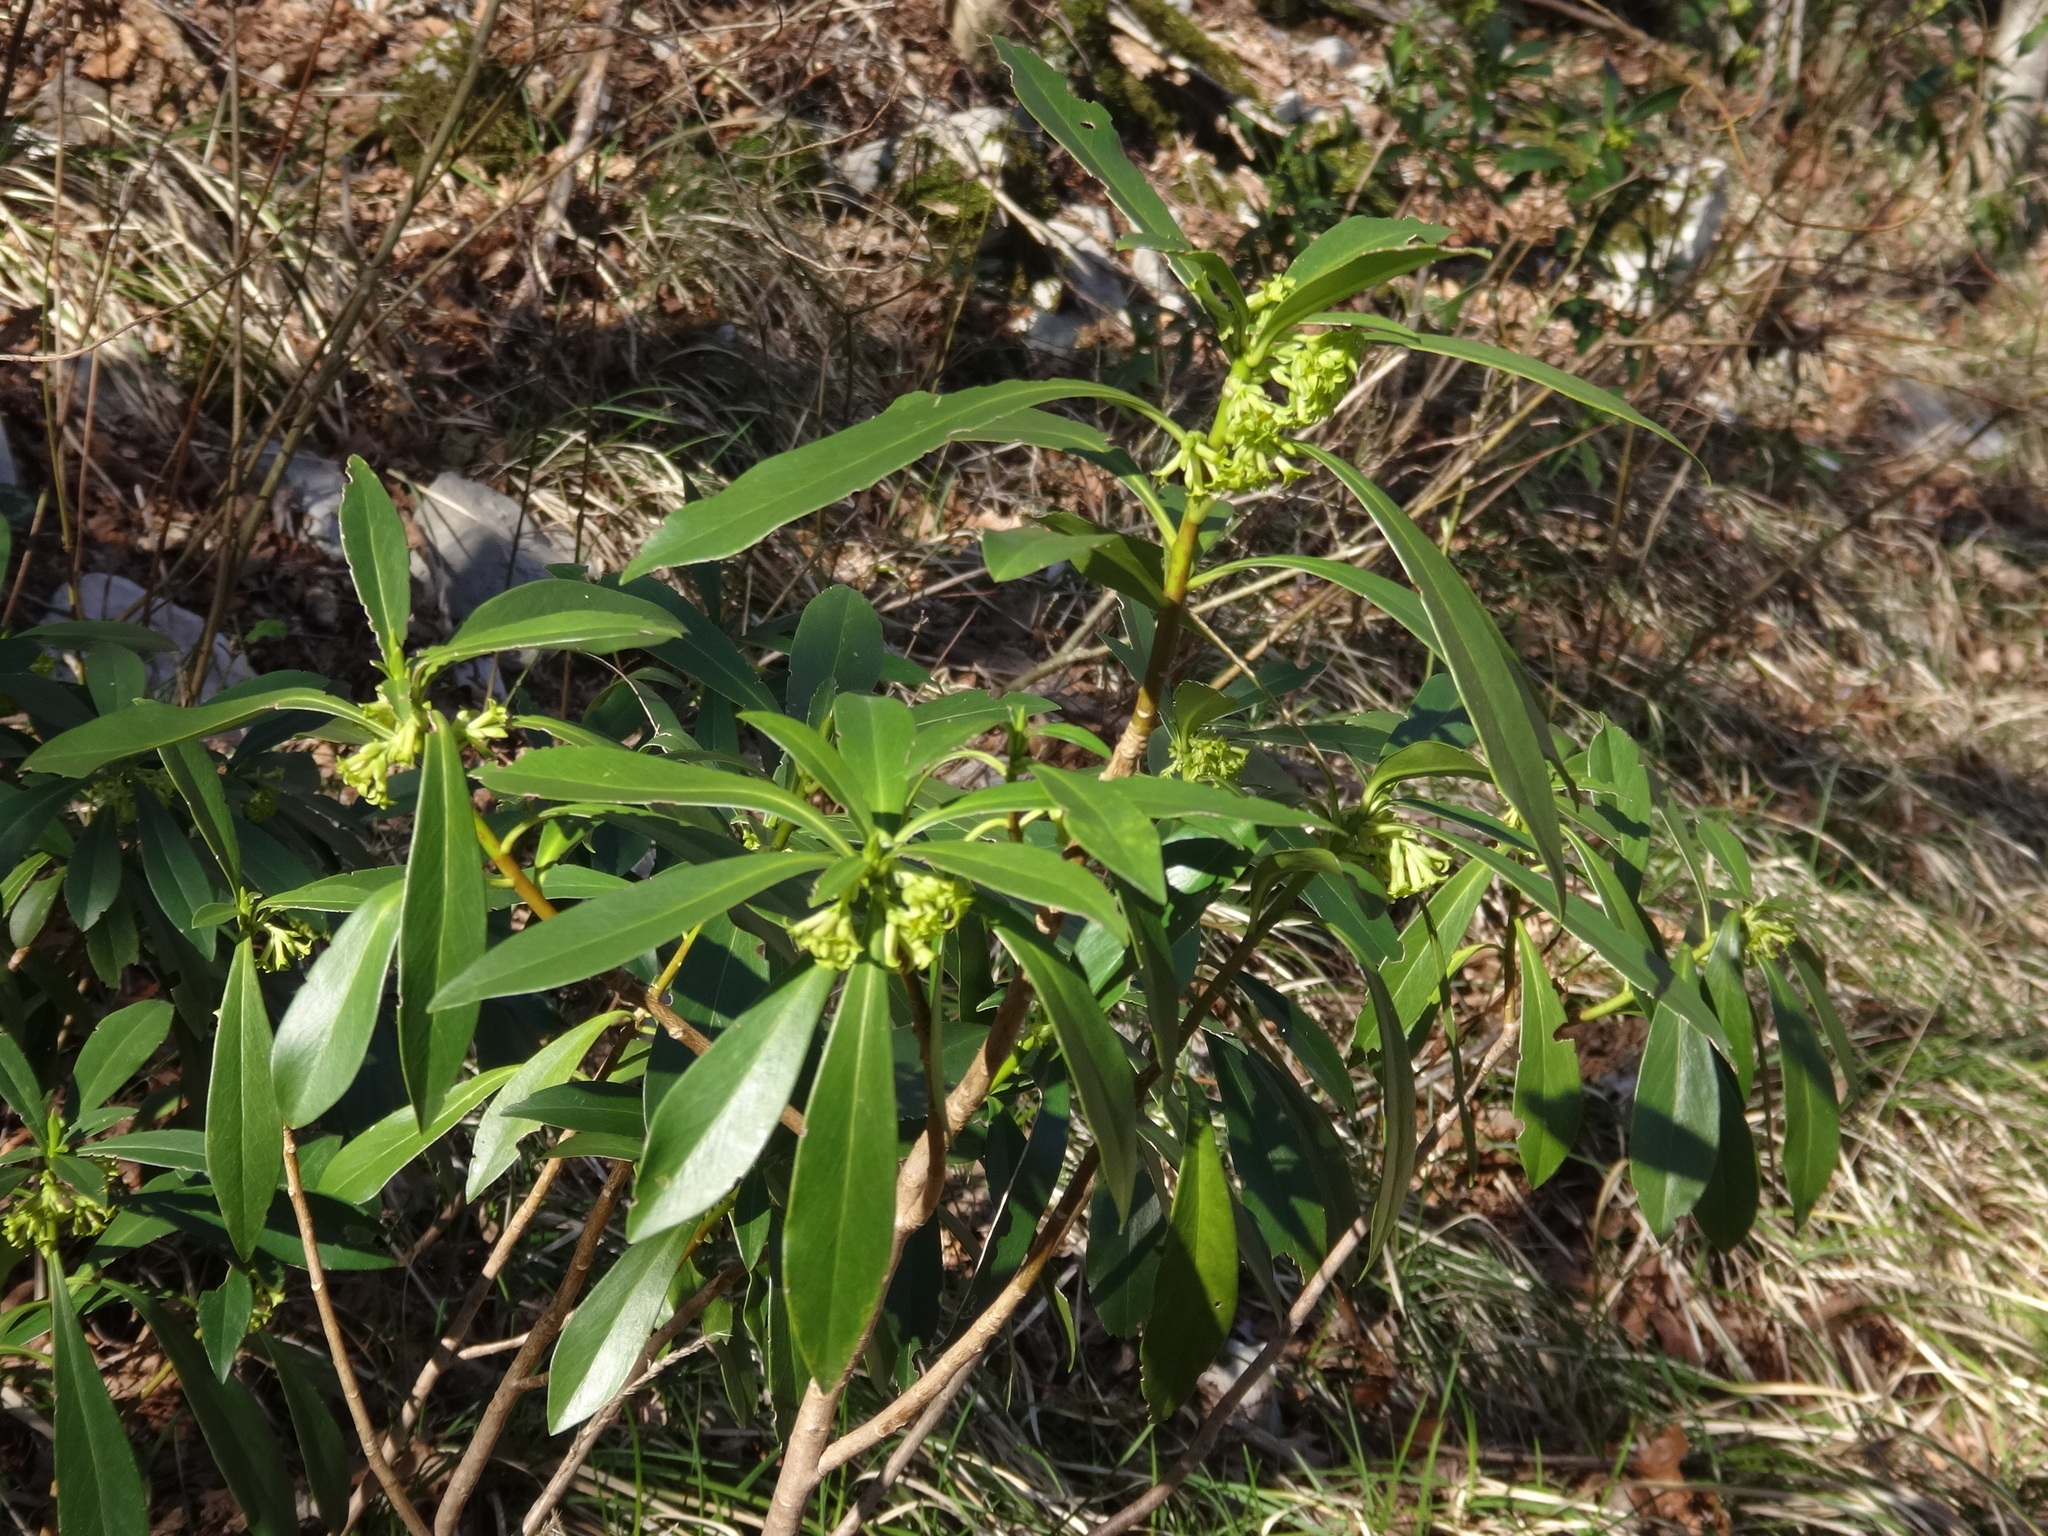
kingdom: Plantae
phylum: Tracheophyta
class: Magnoliopsida
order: Malvales
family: Thymelaeaceae
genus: Daphne
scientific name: Daphne laureola
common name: Spurge-laurel
